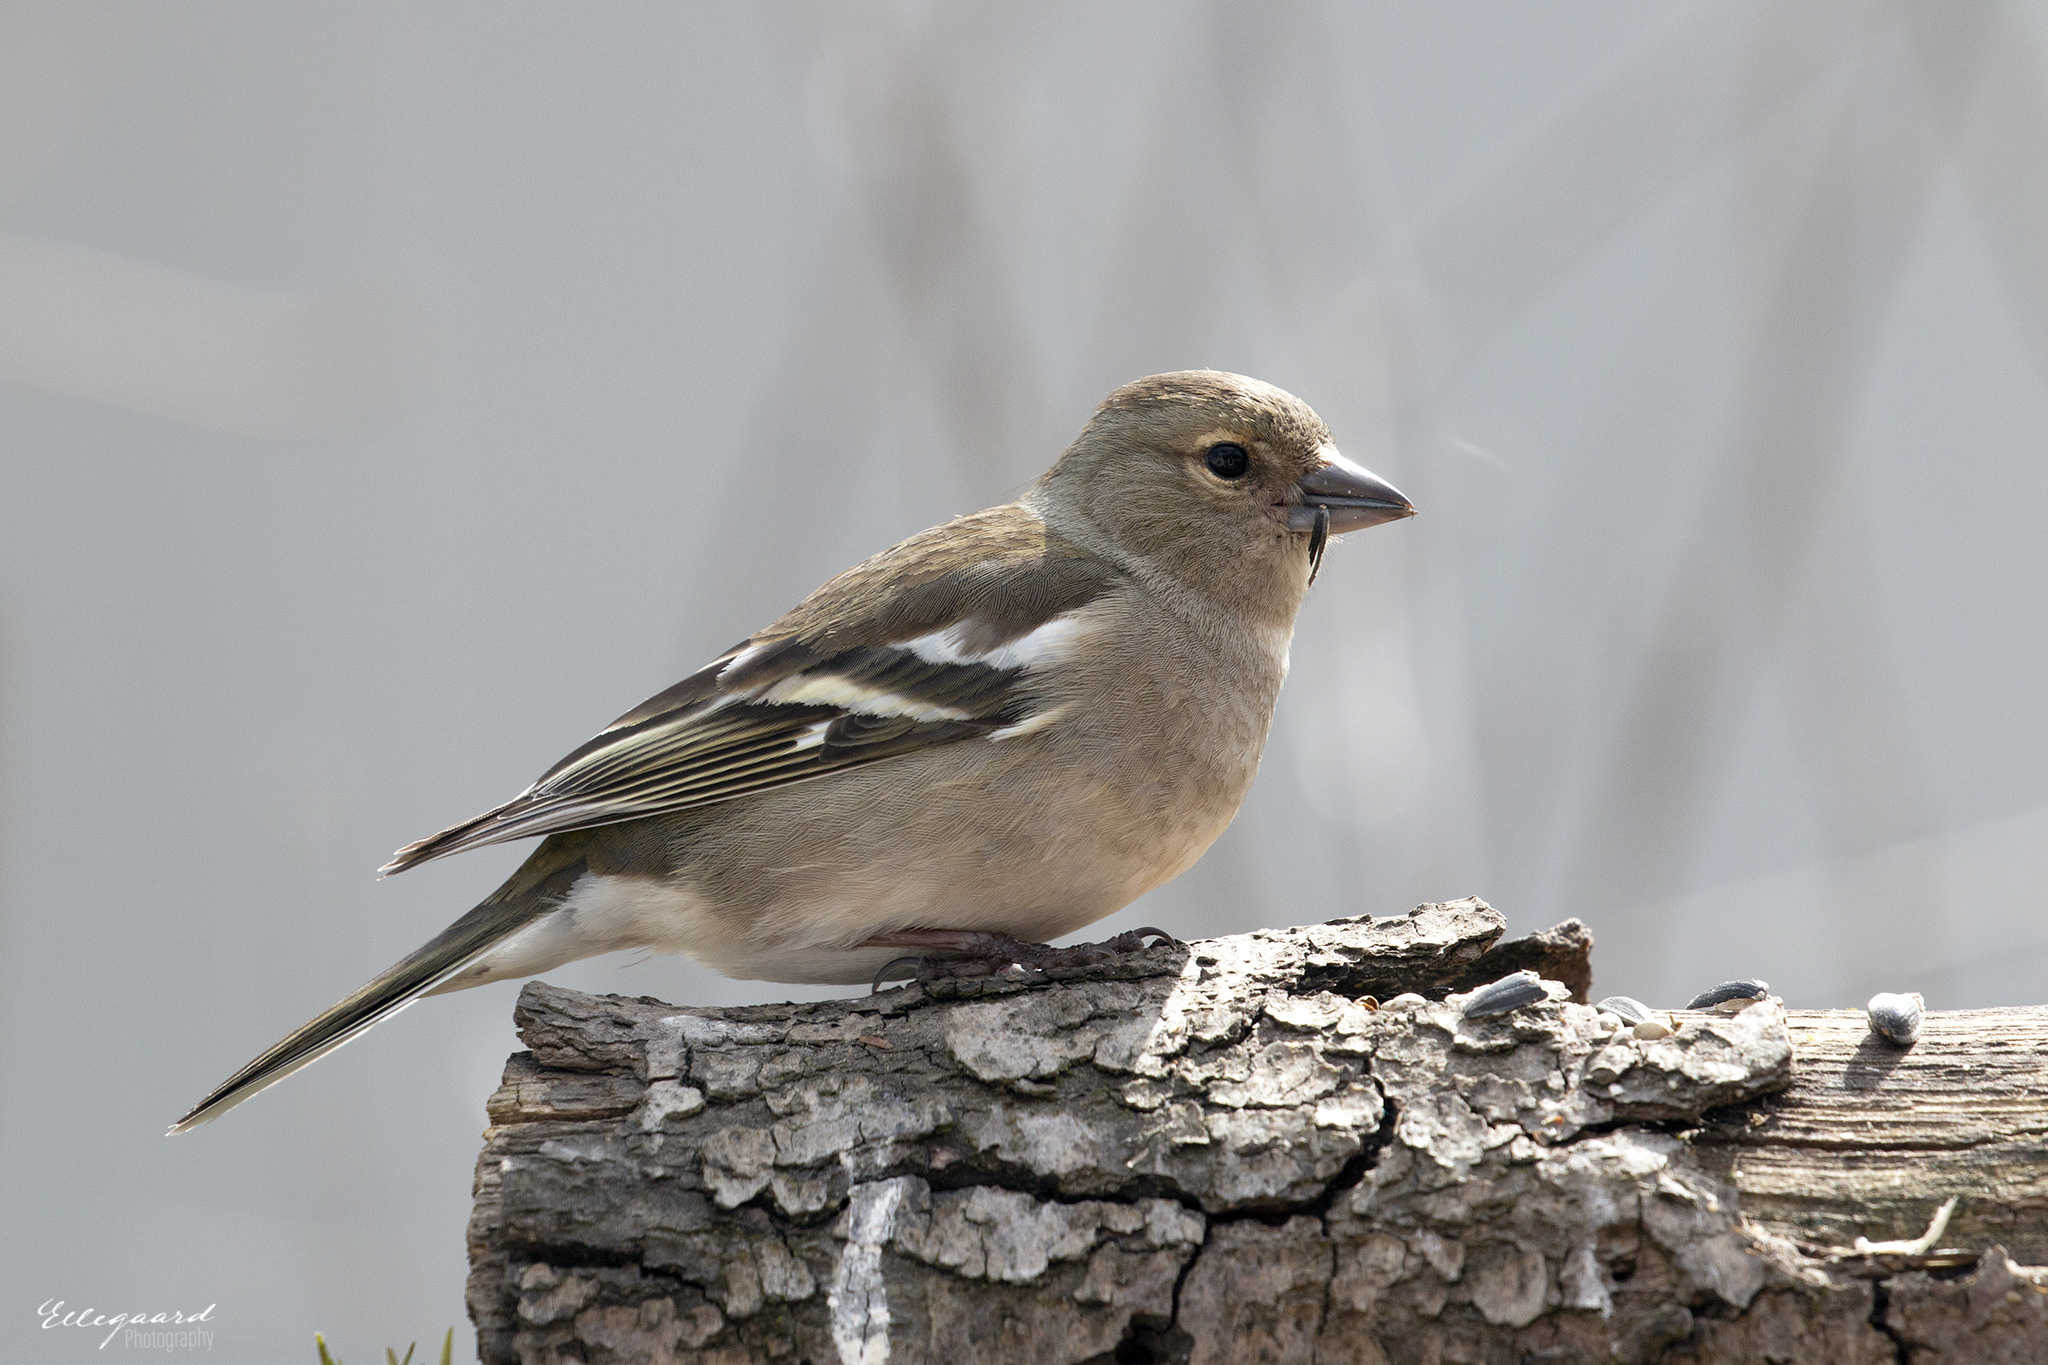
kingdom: Animalia
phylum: Chordata
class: Aves
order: Passeriformes
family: Fringillidae
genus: Fringilla
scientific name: Fringilla coelebs
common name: Common chaffinch
